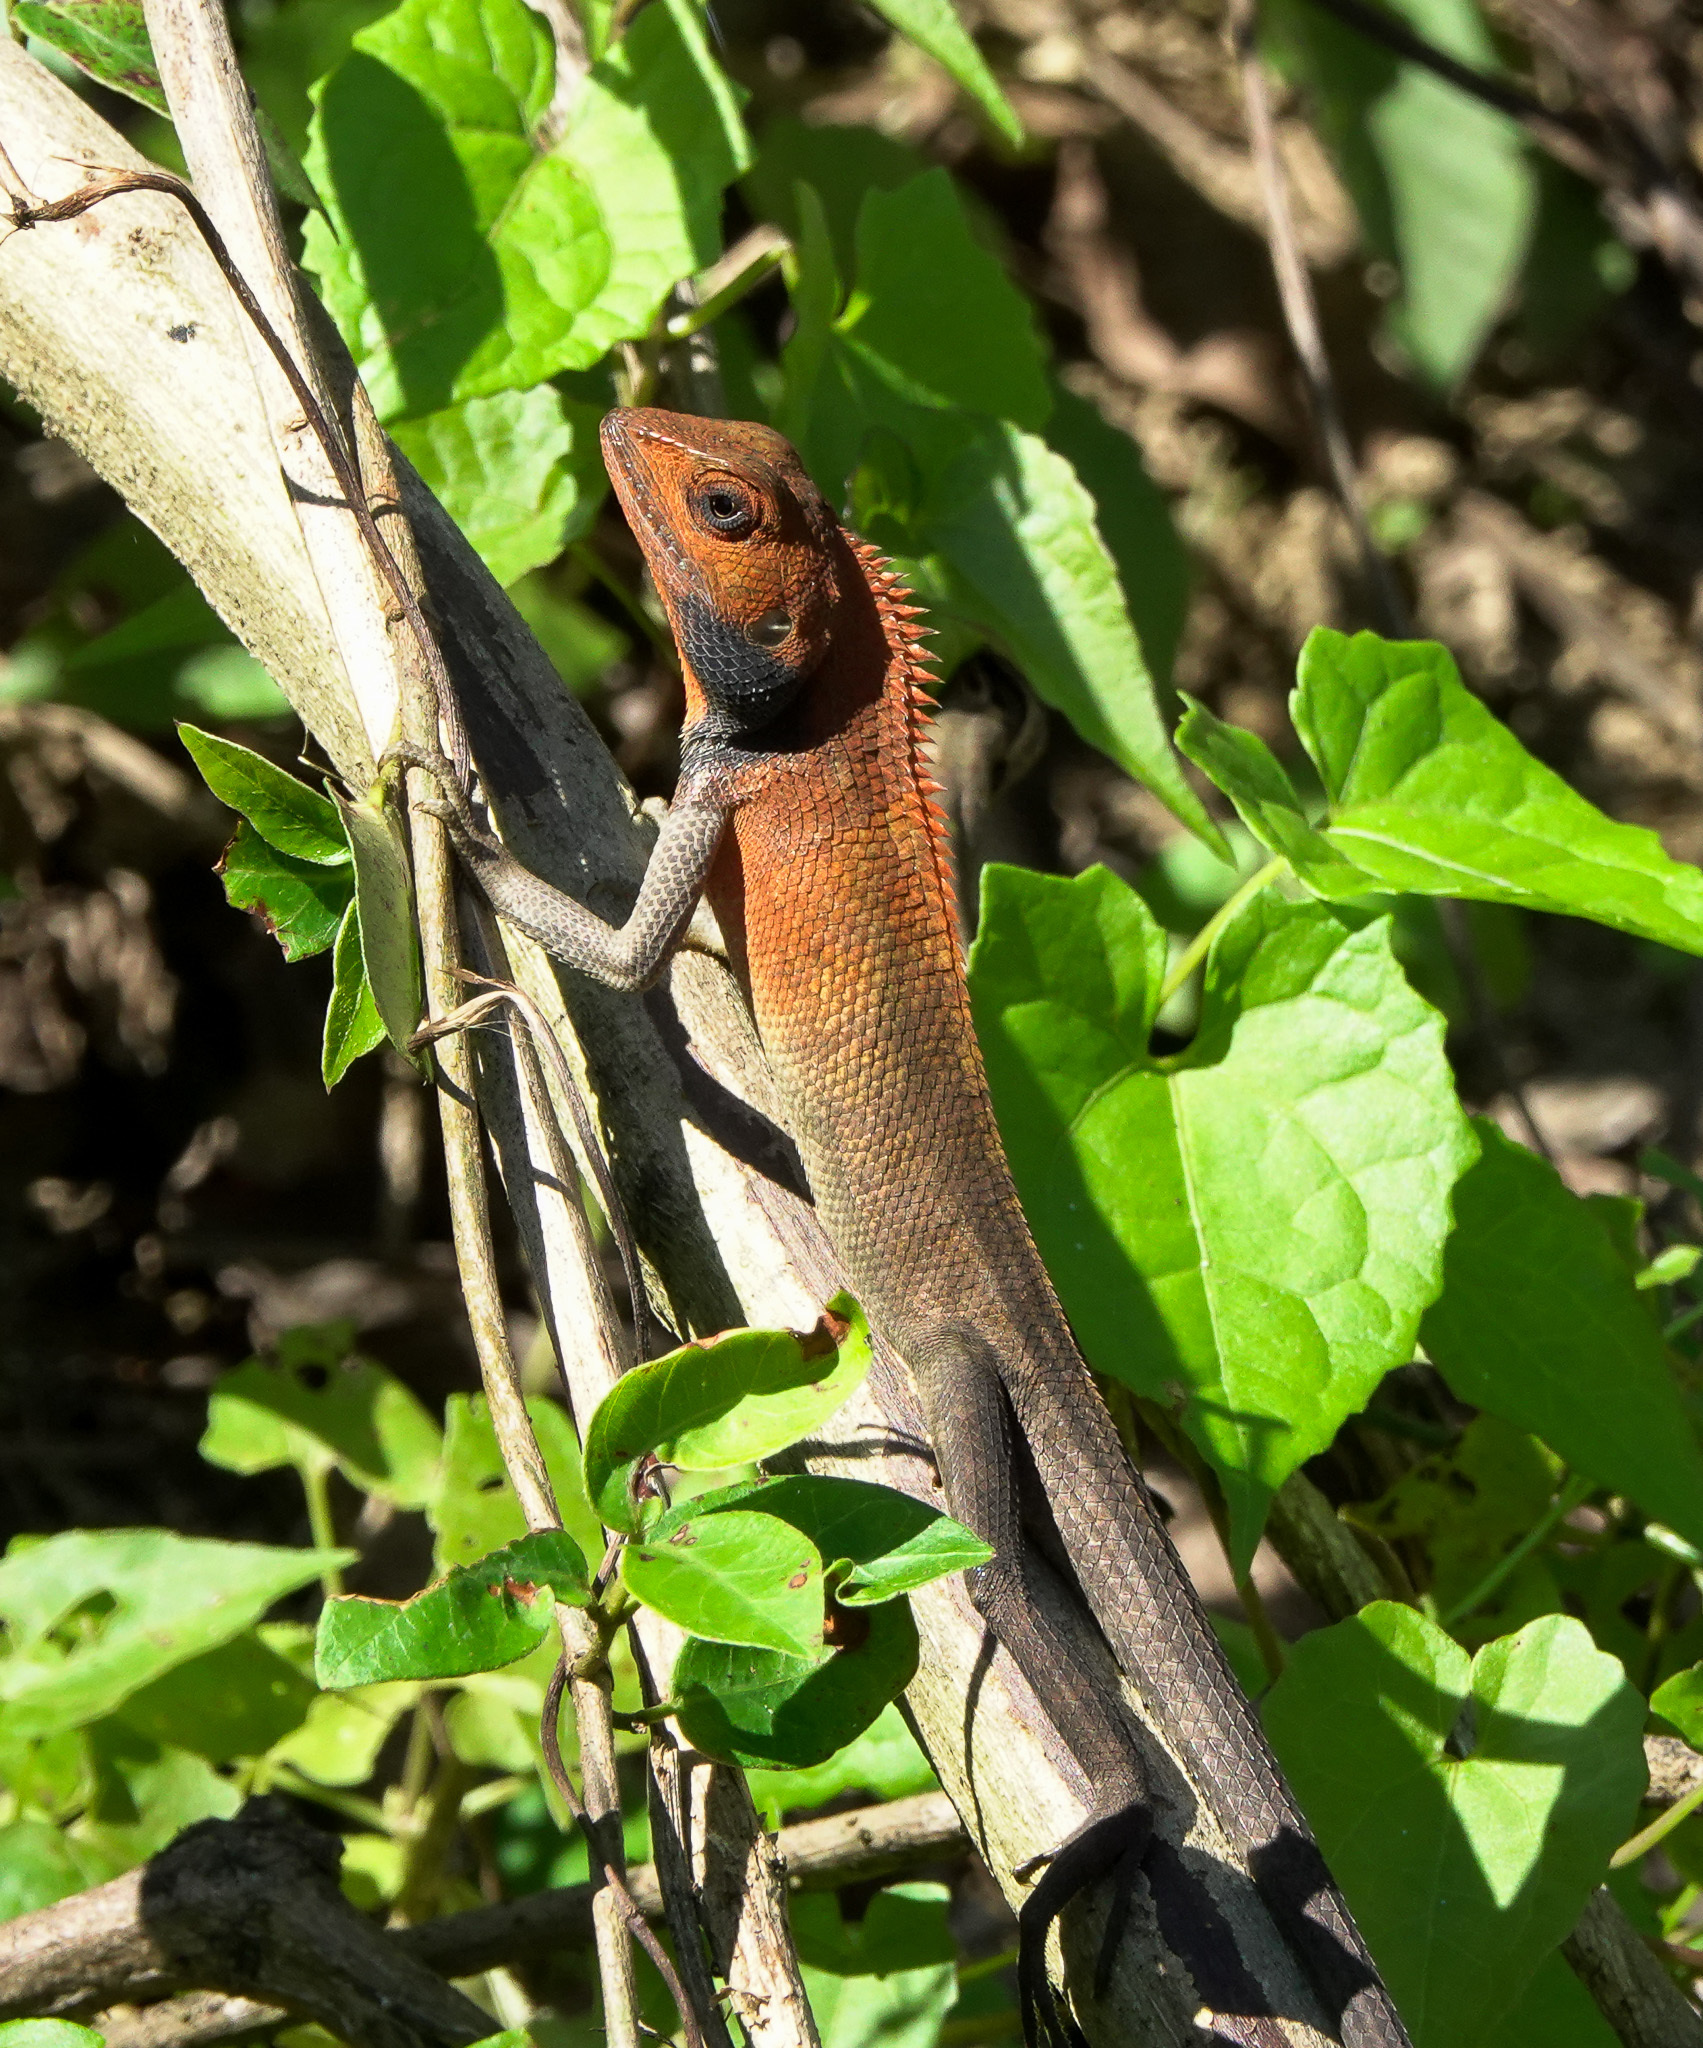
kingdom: Animalia
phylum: Chordata
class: Squamata
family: Agamidae
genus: Calotes
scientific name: Calotes versicolor
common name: Oriental garden lizard
